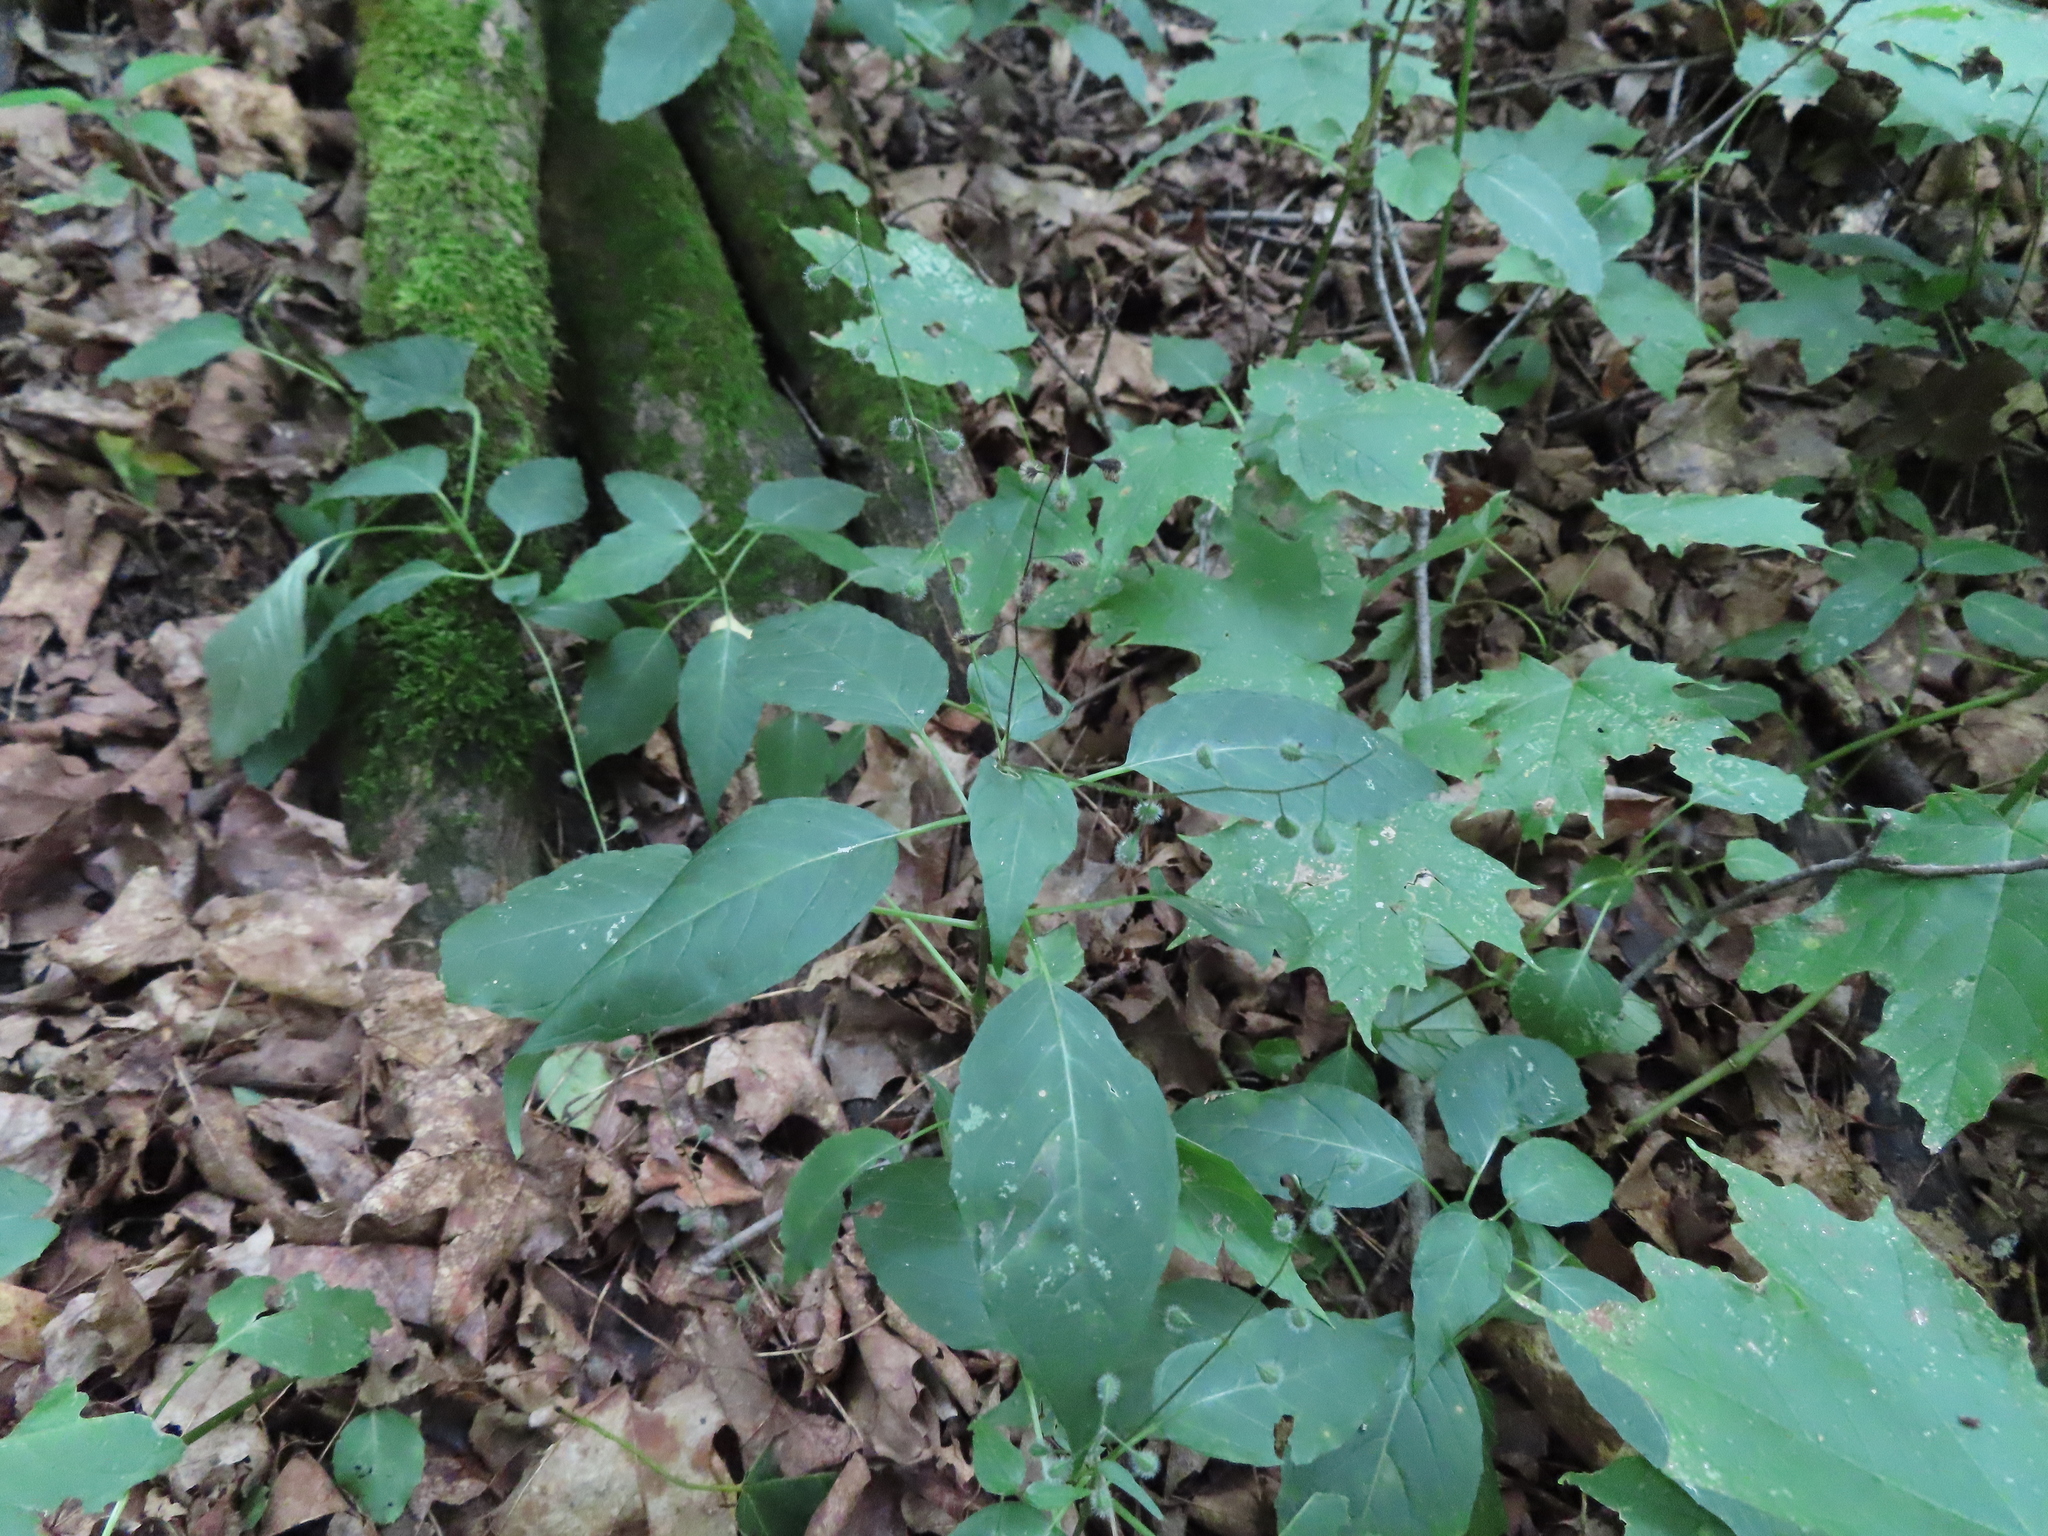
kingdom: Plantae
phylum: Tracheophyta
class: Magnoliopsida
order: Myrtales
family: Onagraceae
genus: Circaea
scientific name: Circaea canadensis
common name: Broad-leaved enchanter's nightshade
